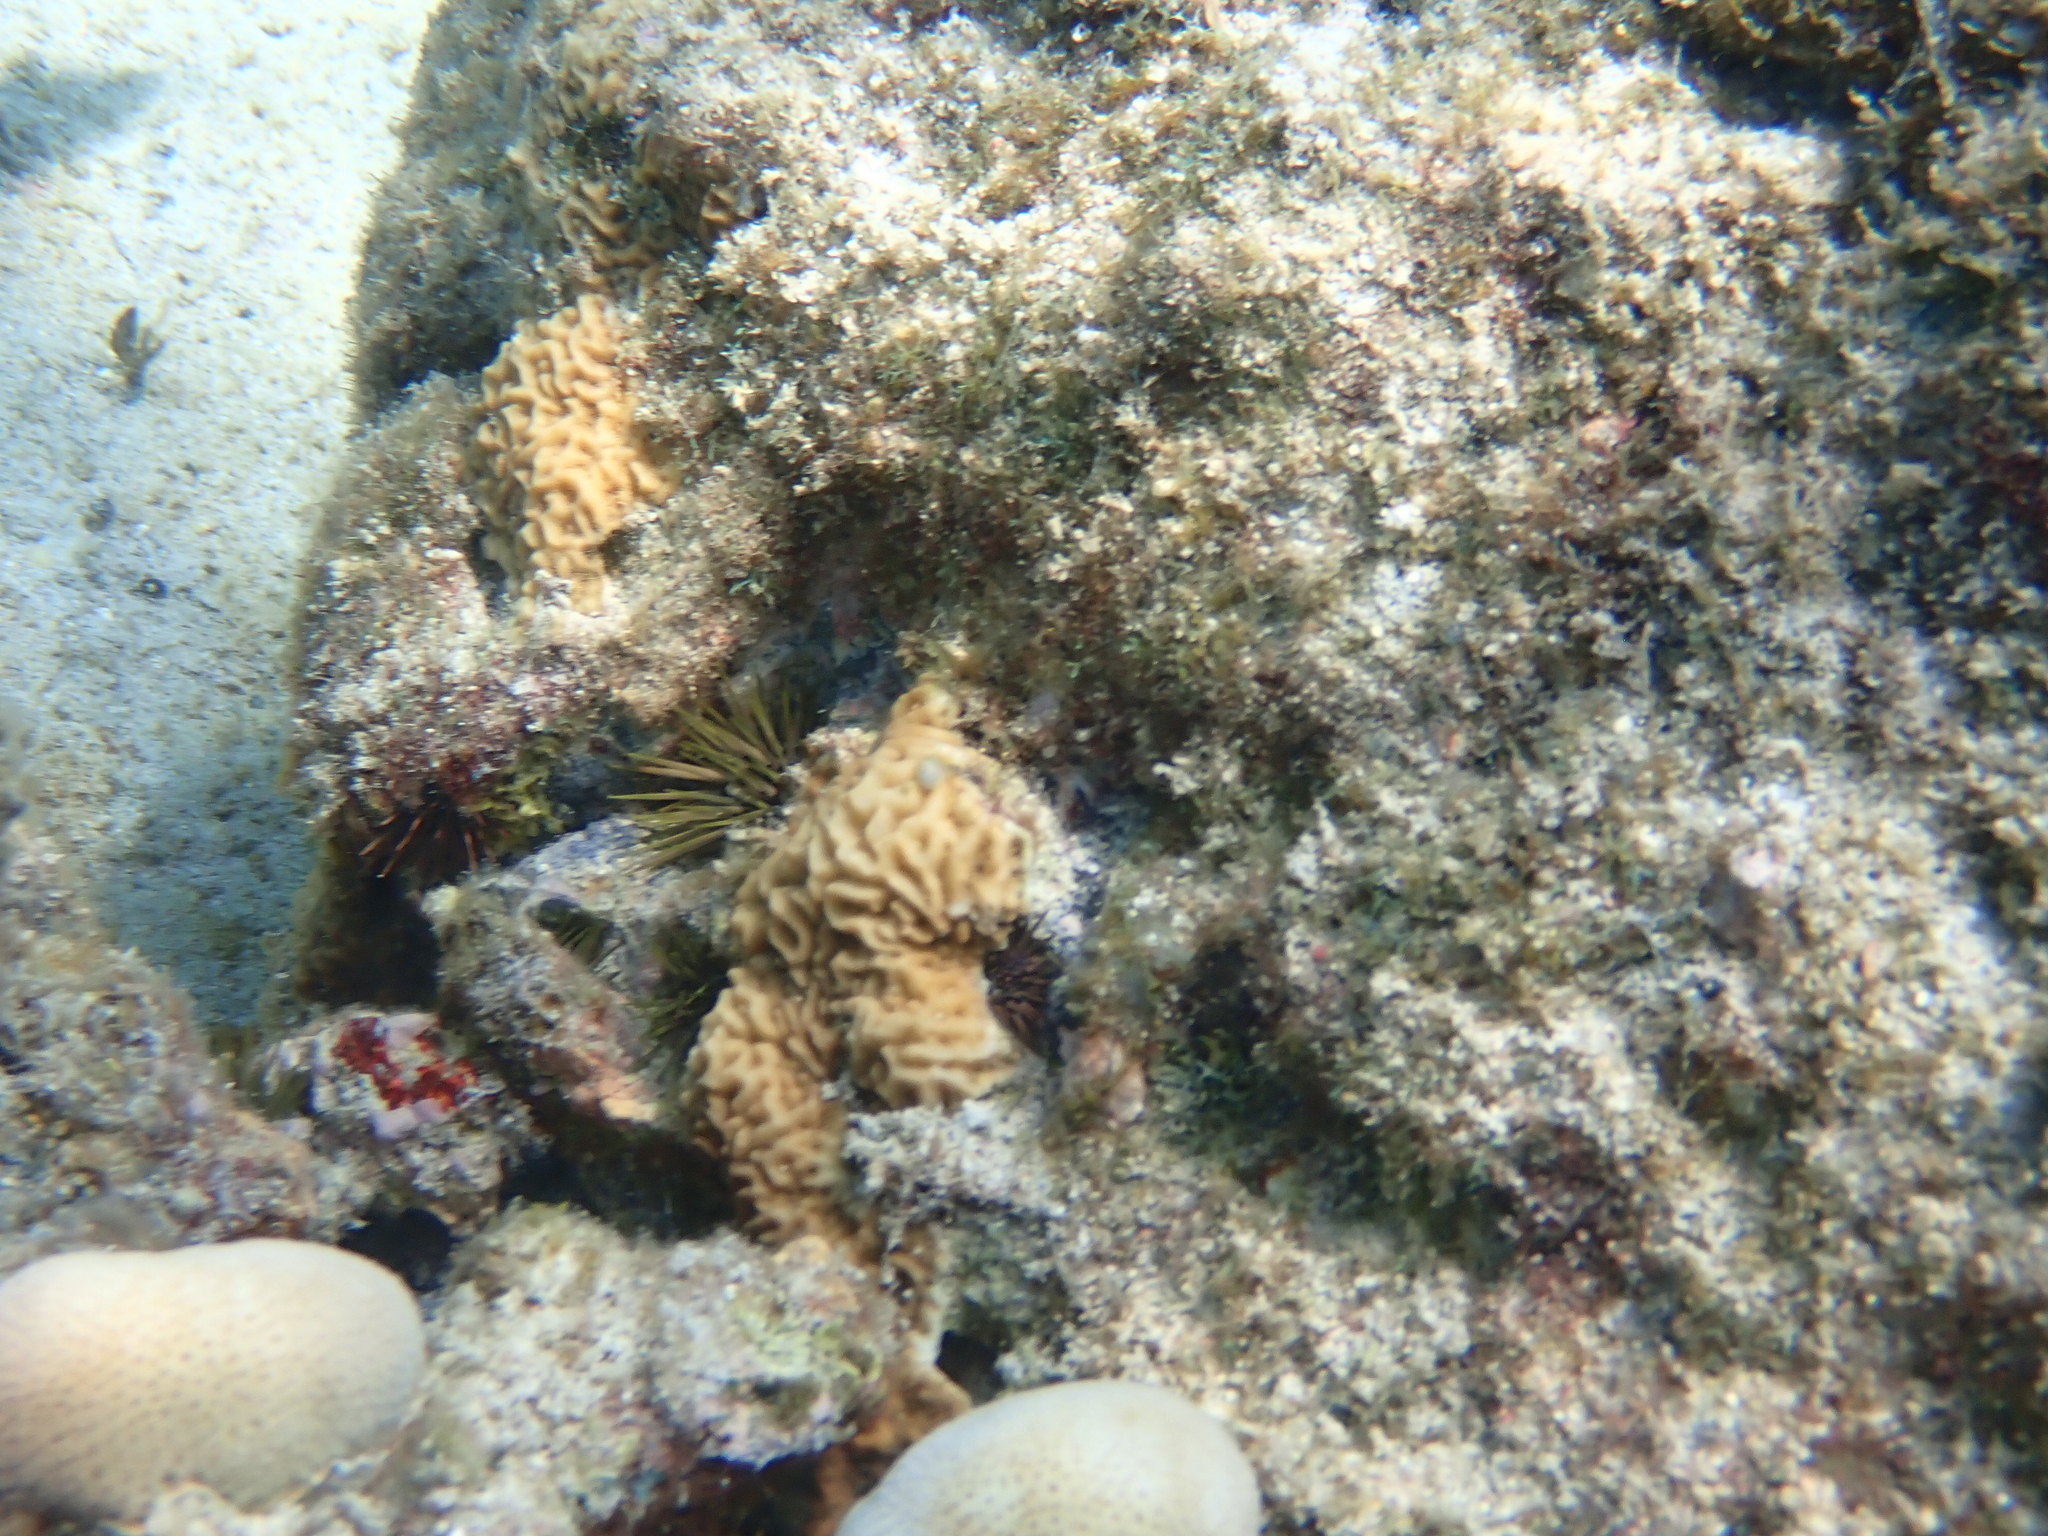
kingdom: Animalia
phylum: Cnidaria
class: Anthozoa
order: Scleractinia
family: Agariciidae
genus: Pavona
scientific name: Pavona varians
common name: Leaf coral
